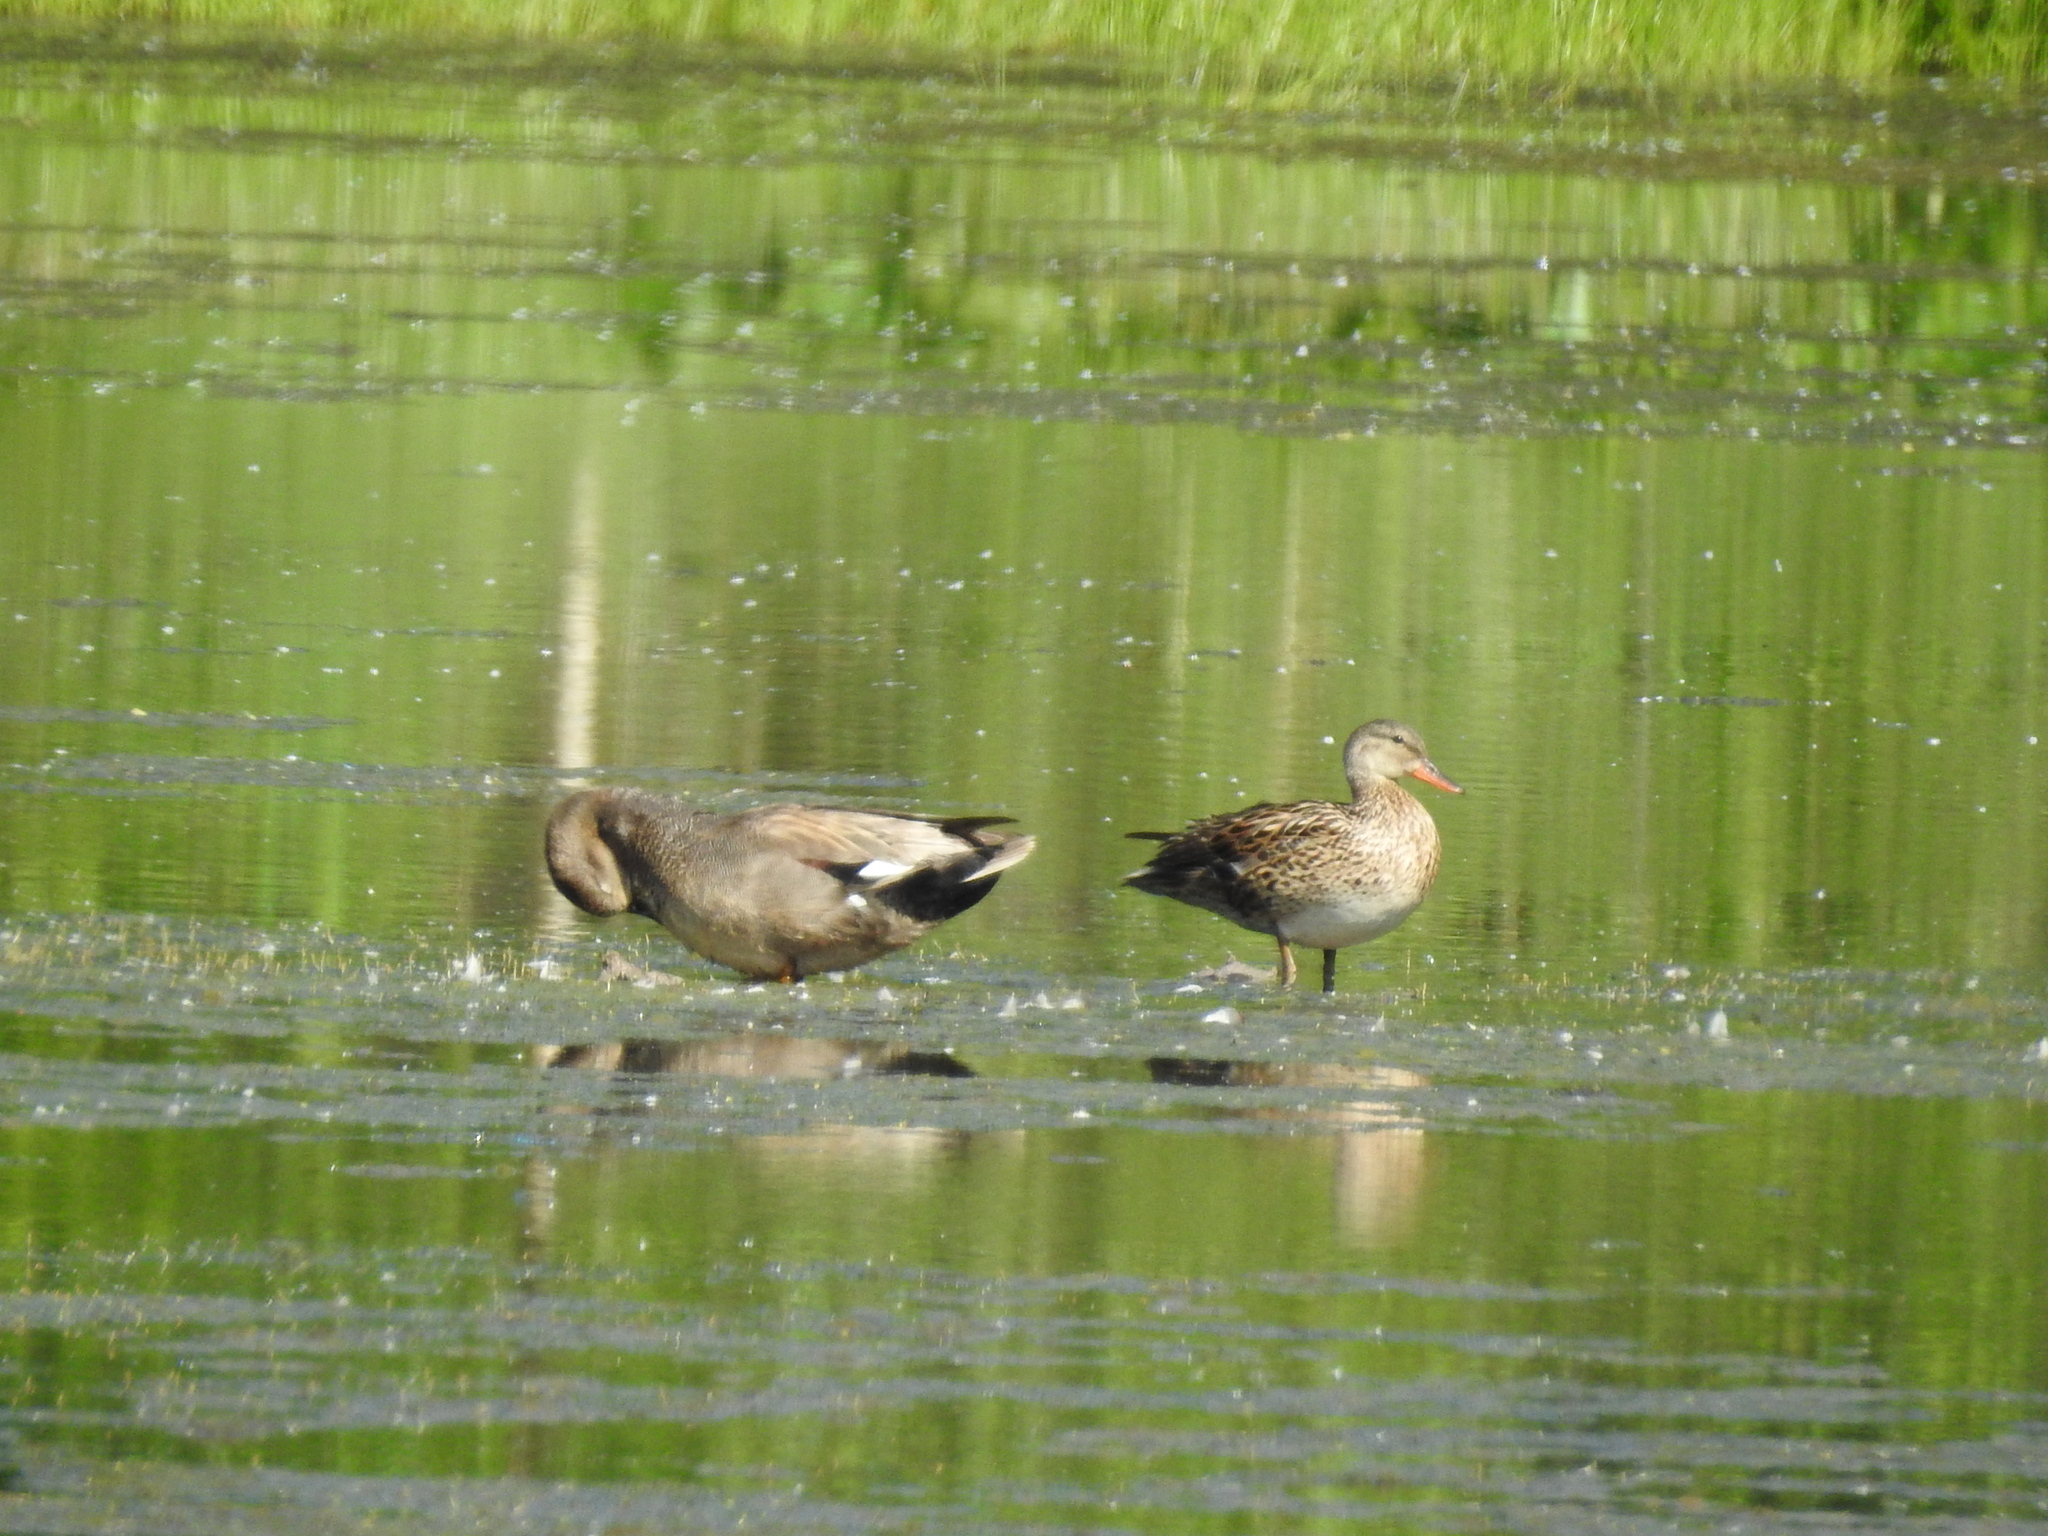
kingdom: Animalia
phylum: Chordata
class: Aves
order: Anseriformes
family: Anatidae
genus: Mareca
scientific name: Mareca strepera
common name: Gadwall
